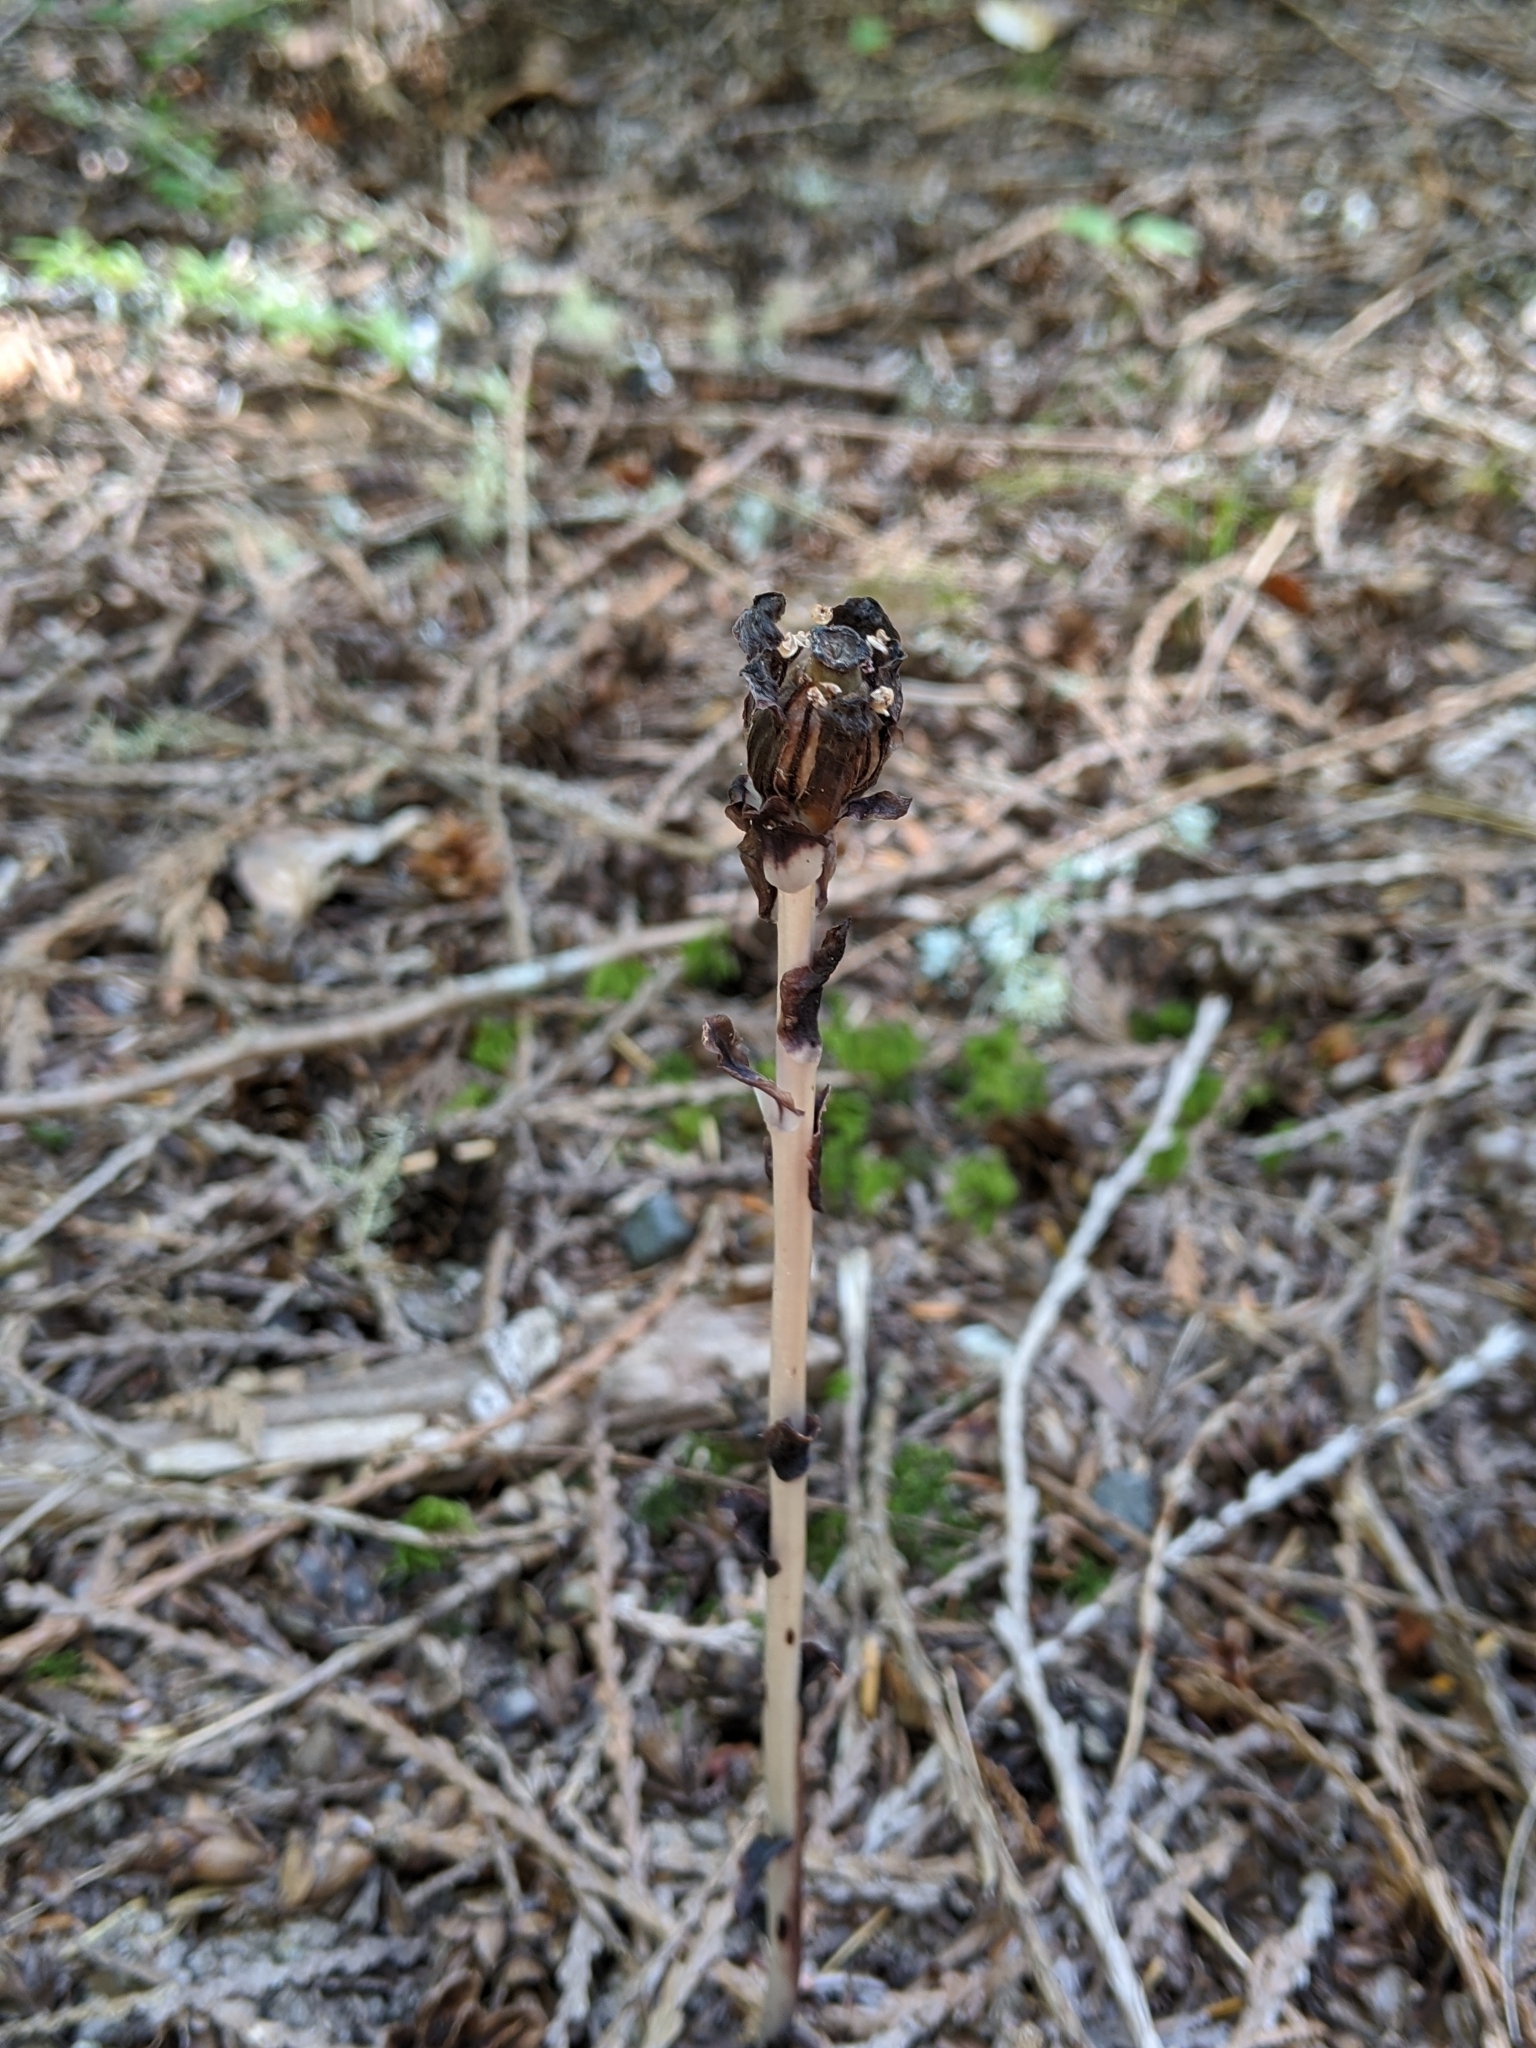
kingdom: Plantae
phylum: Tracheophyta
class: Magnoliopsida
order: Ericales
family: Ericaceae
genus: Monotropa
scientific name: Monotropa uniflora
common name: Convulsion root
